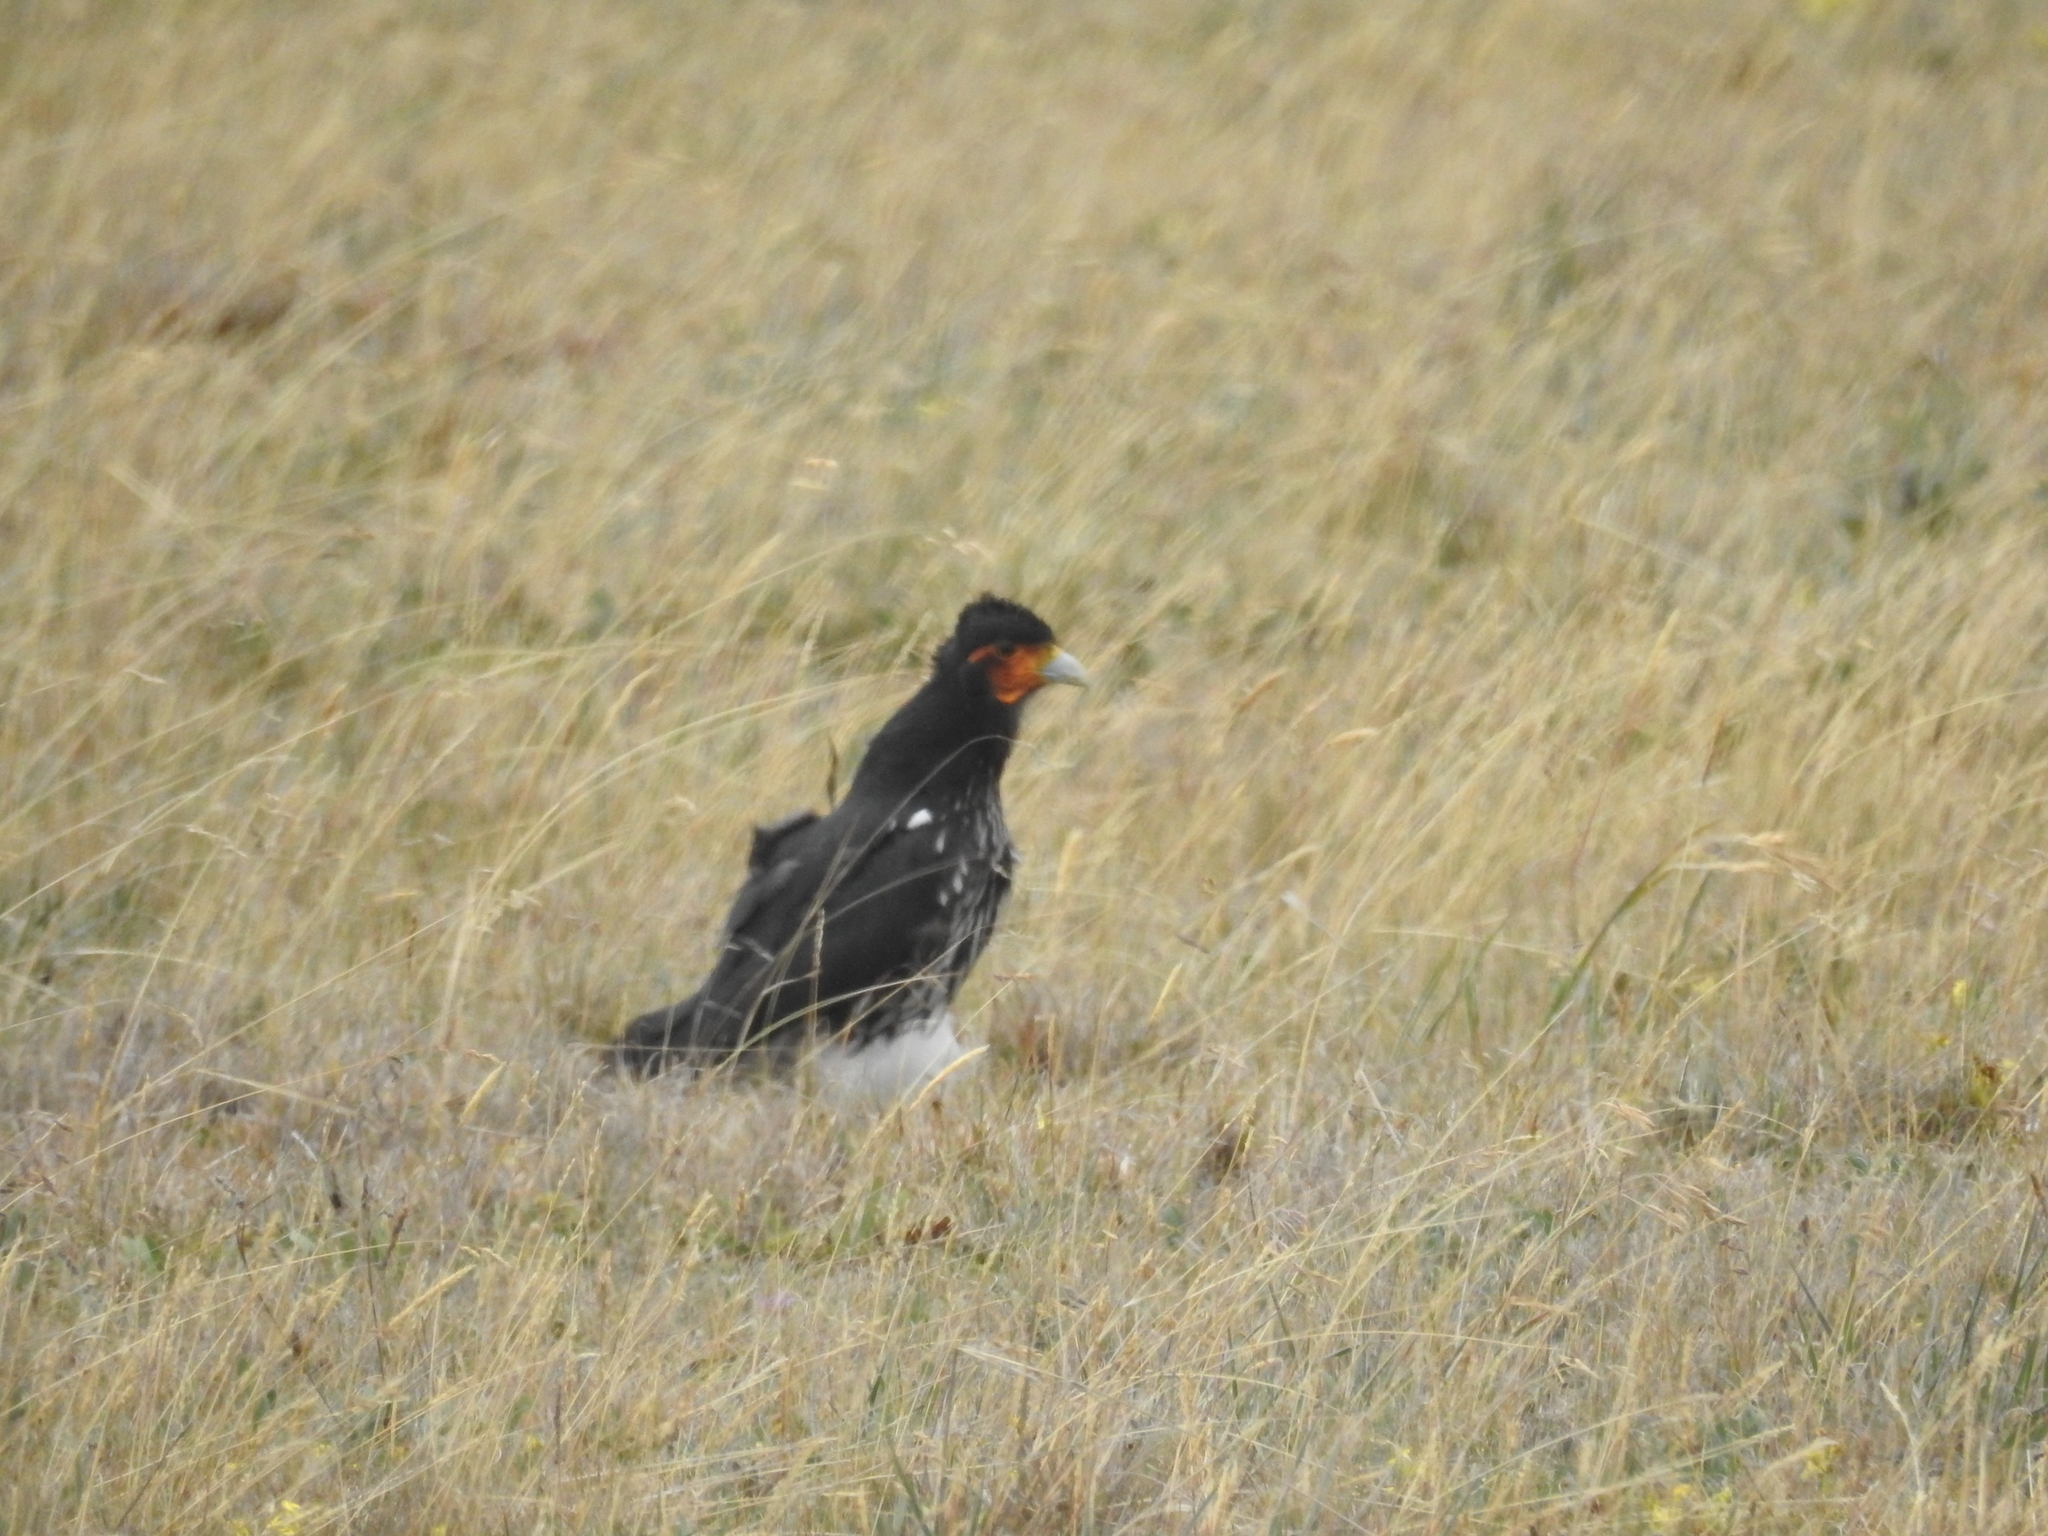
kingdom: Animalia
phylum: Chordata
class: Aves
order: Falconiformes
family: Falconidae
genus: Daptrius
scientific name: Daptrius
